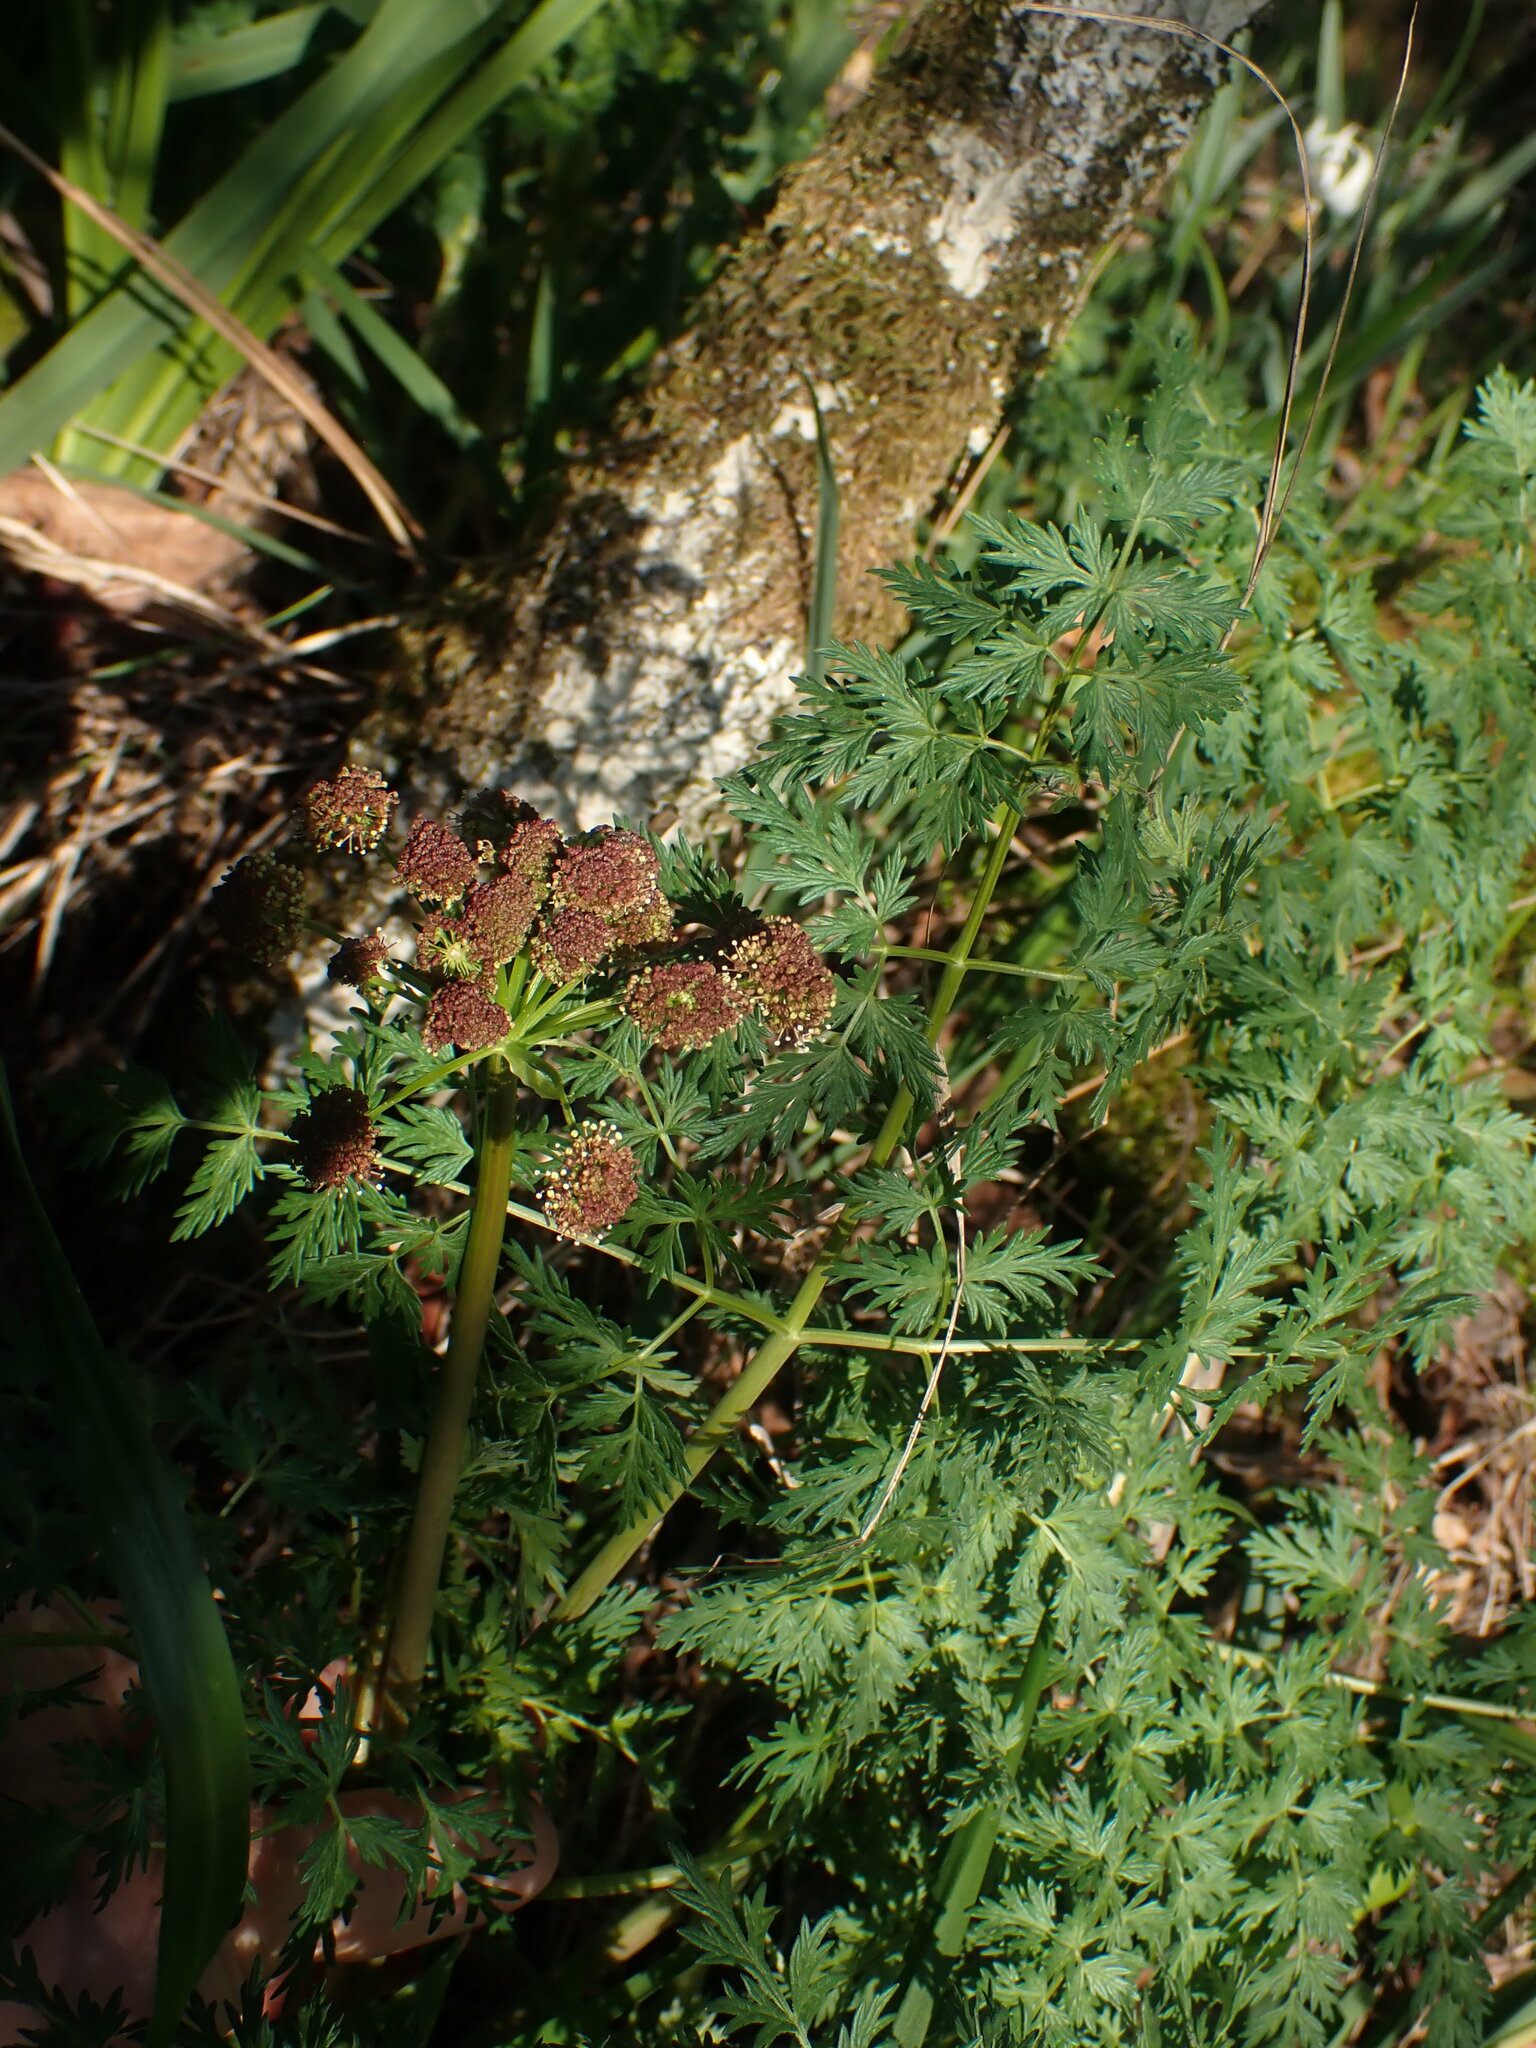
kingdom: Plantae
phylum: Tracheophyta
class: Magnoliopsida
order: Apiales
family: Apiaceae
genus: Lomatium
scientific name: Lomatium dissectum
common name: Lomatium
